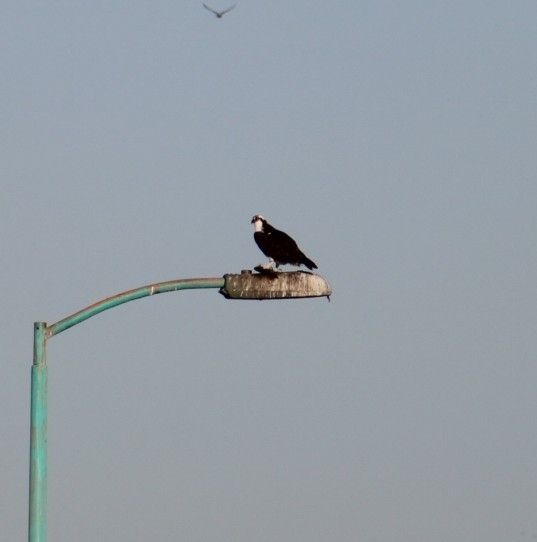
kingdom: Animalia
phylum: Chordata
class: Aves
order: Accipitriformes
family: Pandionidae
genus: Pandion
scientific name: Pandion haliaetus
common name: Osprey
